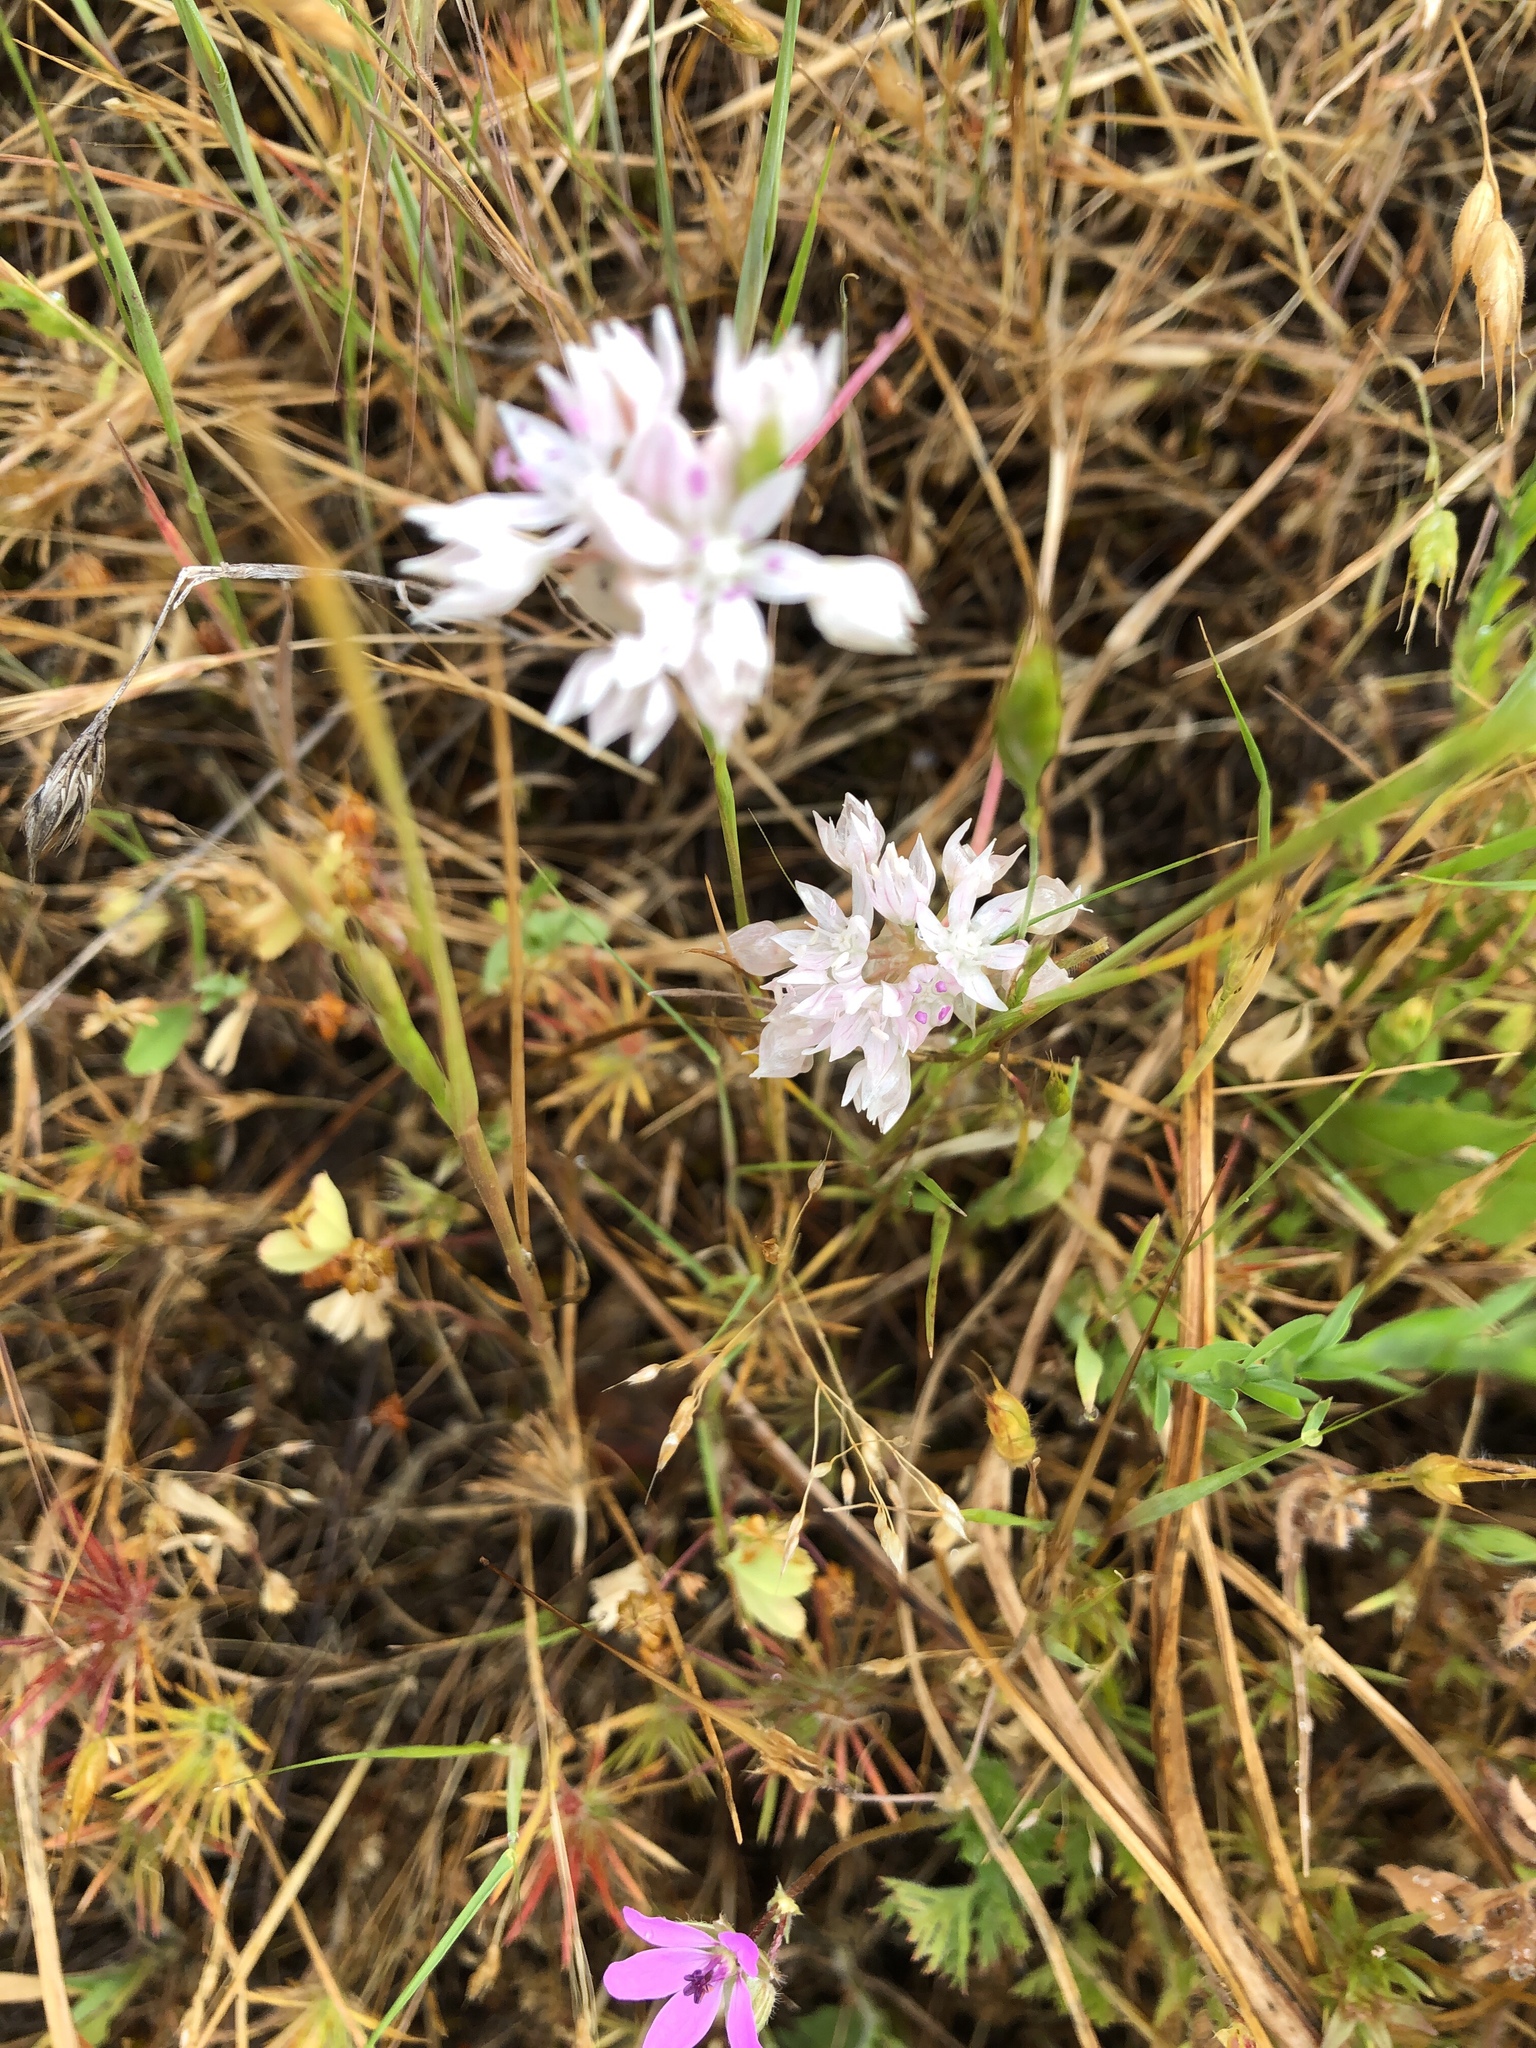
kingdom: Plantae
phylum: Tracheophyta
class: Liliopsida
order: Asparagales
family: Amaryllidaceae
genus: Allium
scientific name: Allium amplectens
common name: Narrow-leaved onion
